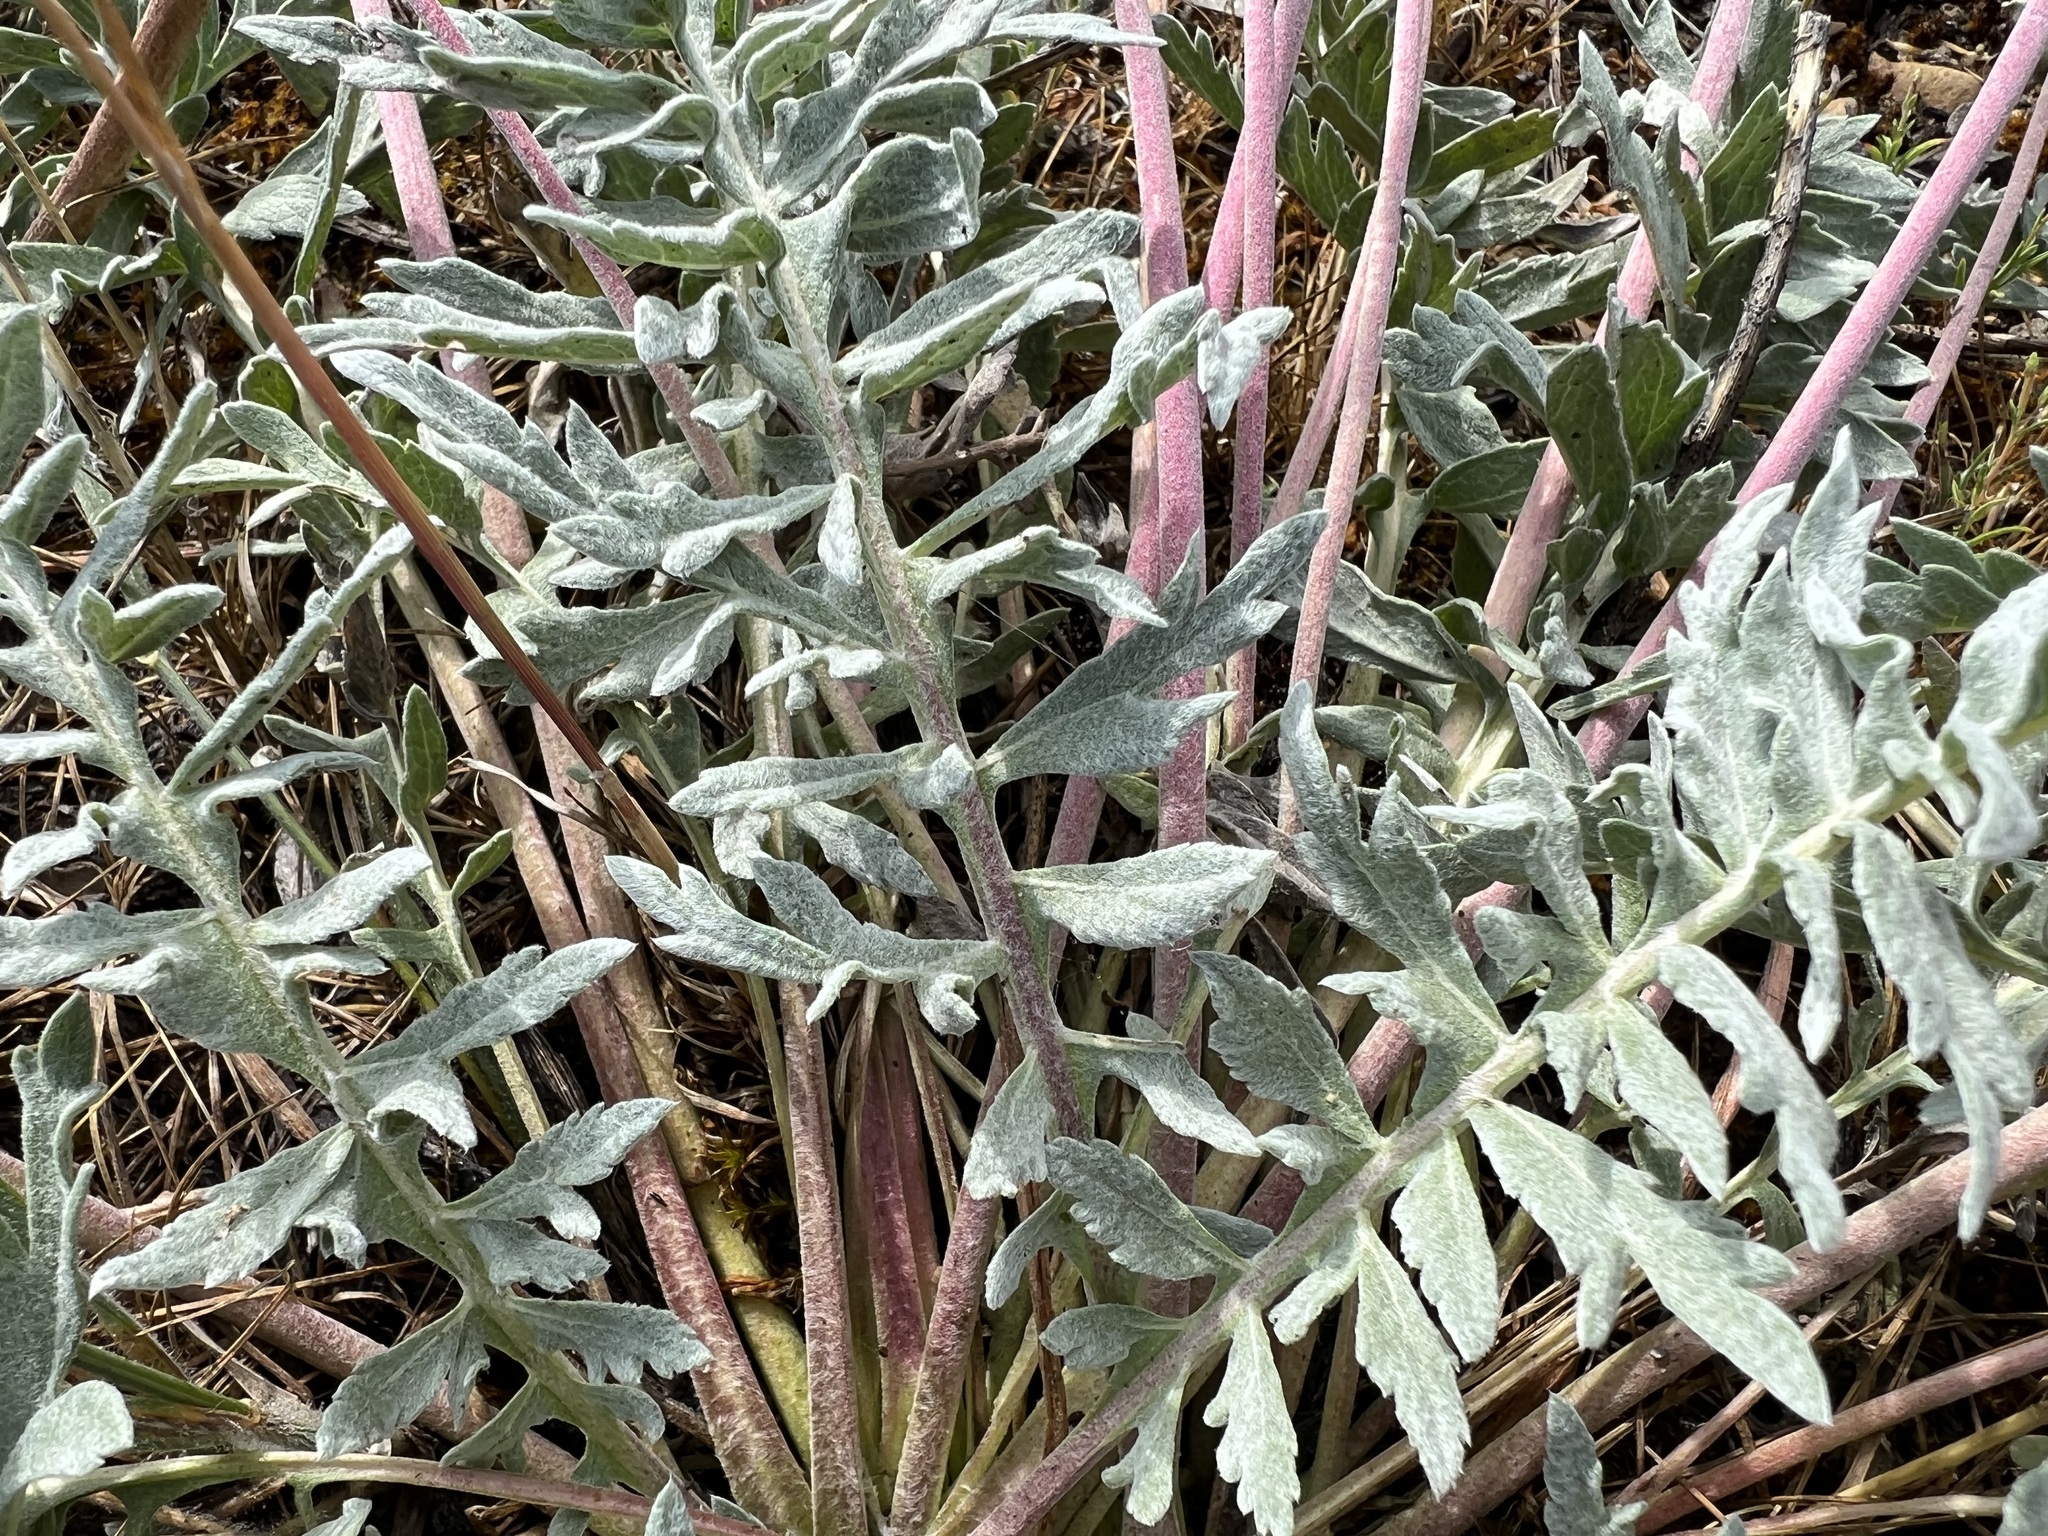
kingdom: Plantae
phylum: Tracheophyta
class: Magnoliopsida
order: Asterales
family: Asteraceae
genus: Balsamorhiza
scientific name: Balsamorhiza hookeri
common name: Hooker's balsamroot
